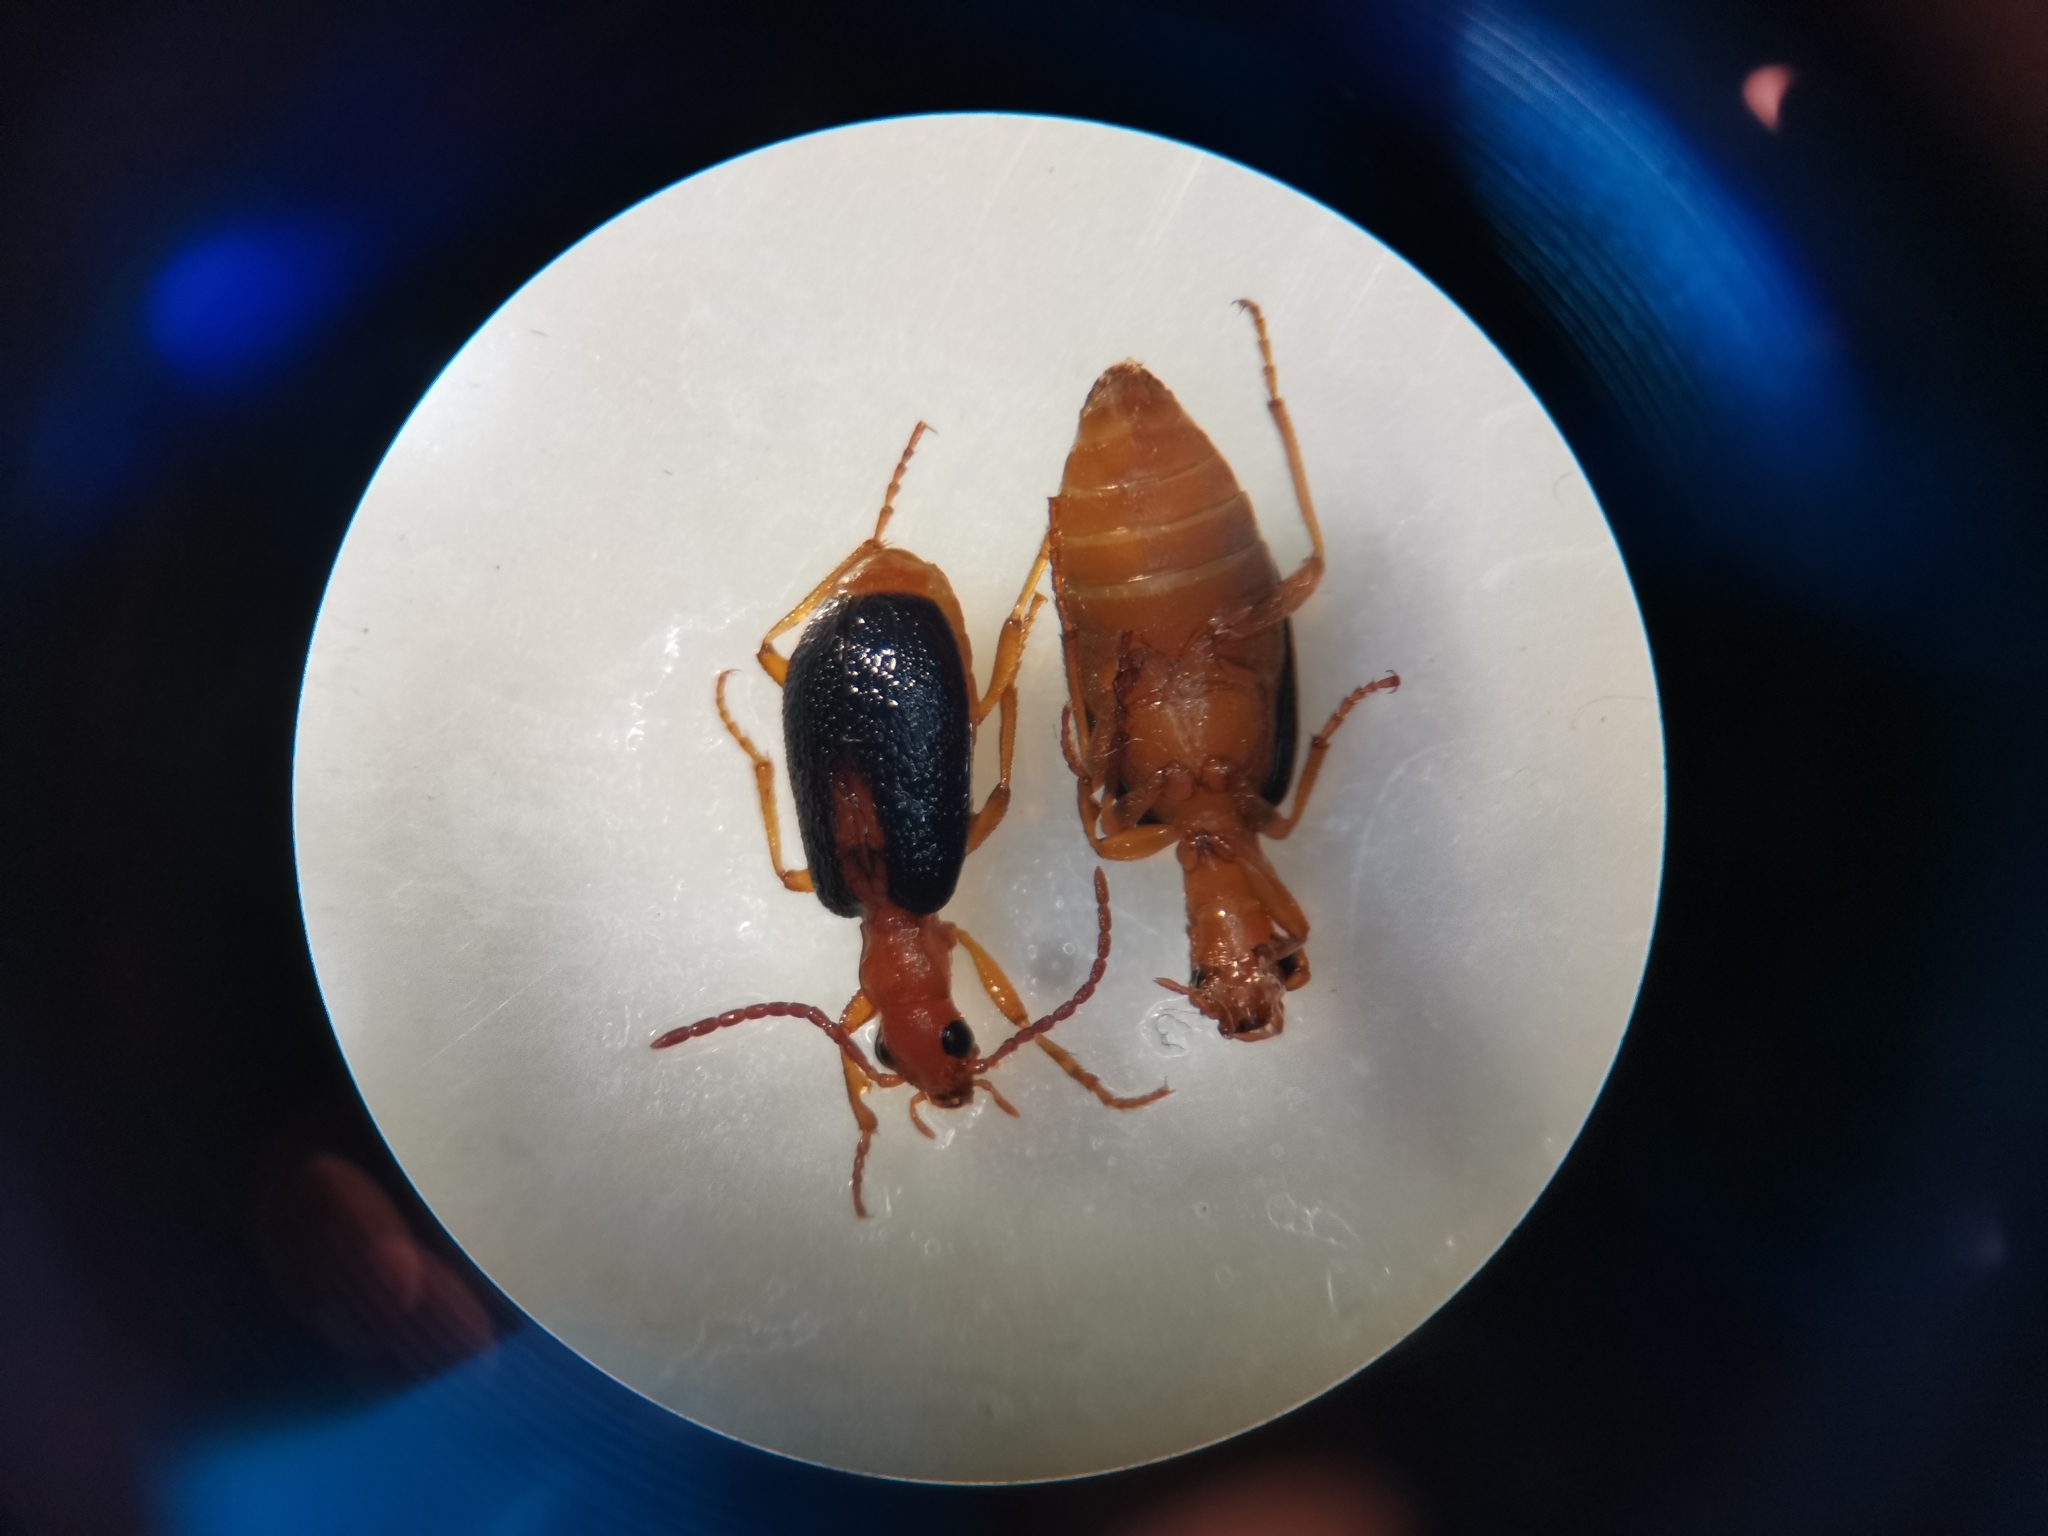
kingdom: Animalia
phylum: Arthropoda
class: Insecta
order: Coleoptera
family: Carabidae
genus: Brachinus
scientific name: Brachinus sclopeta
